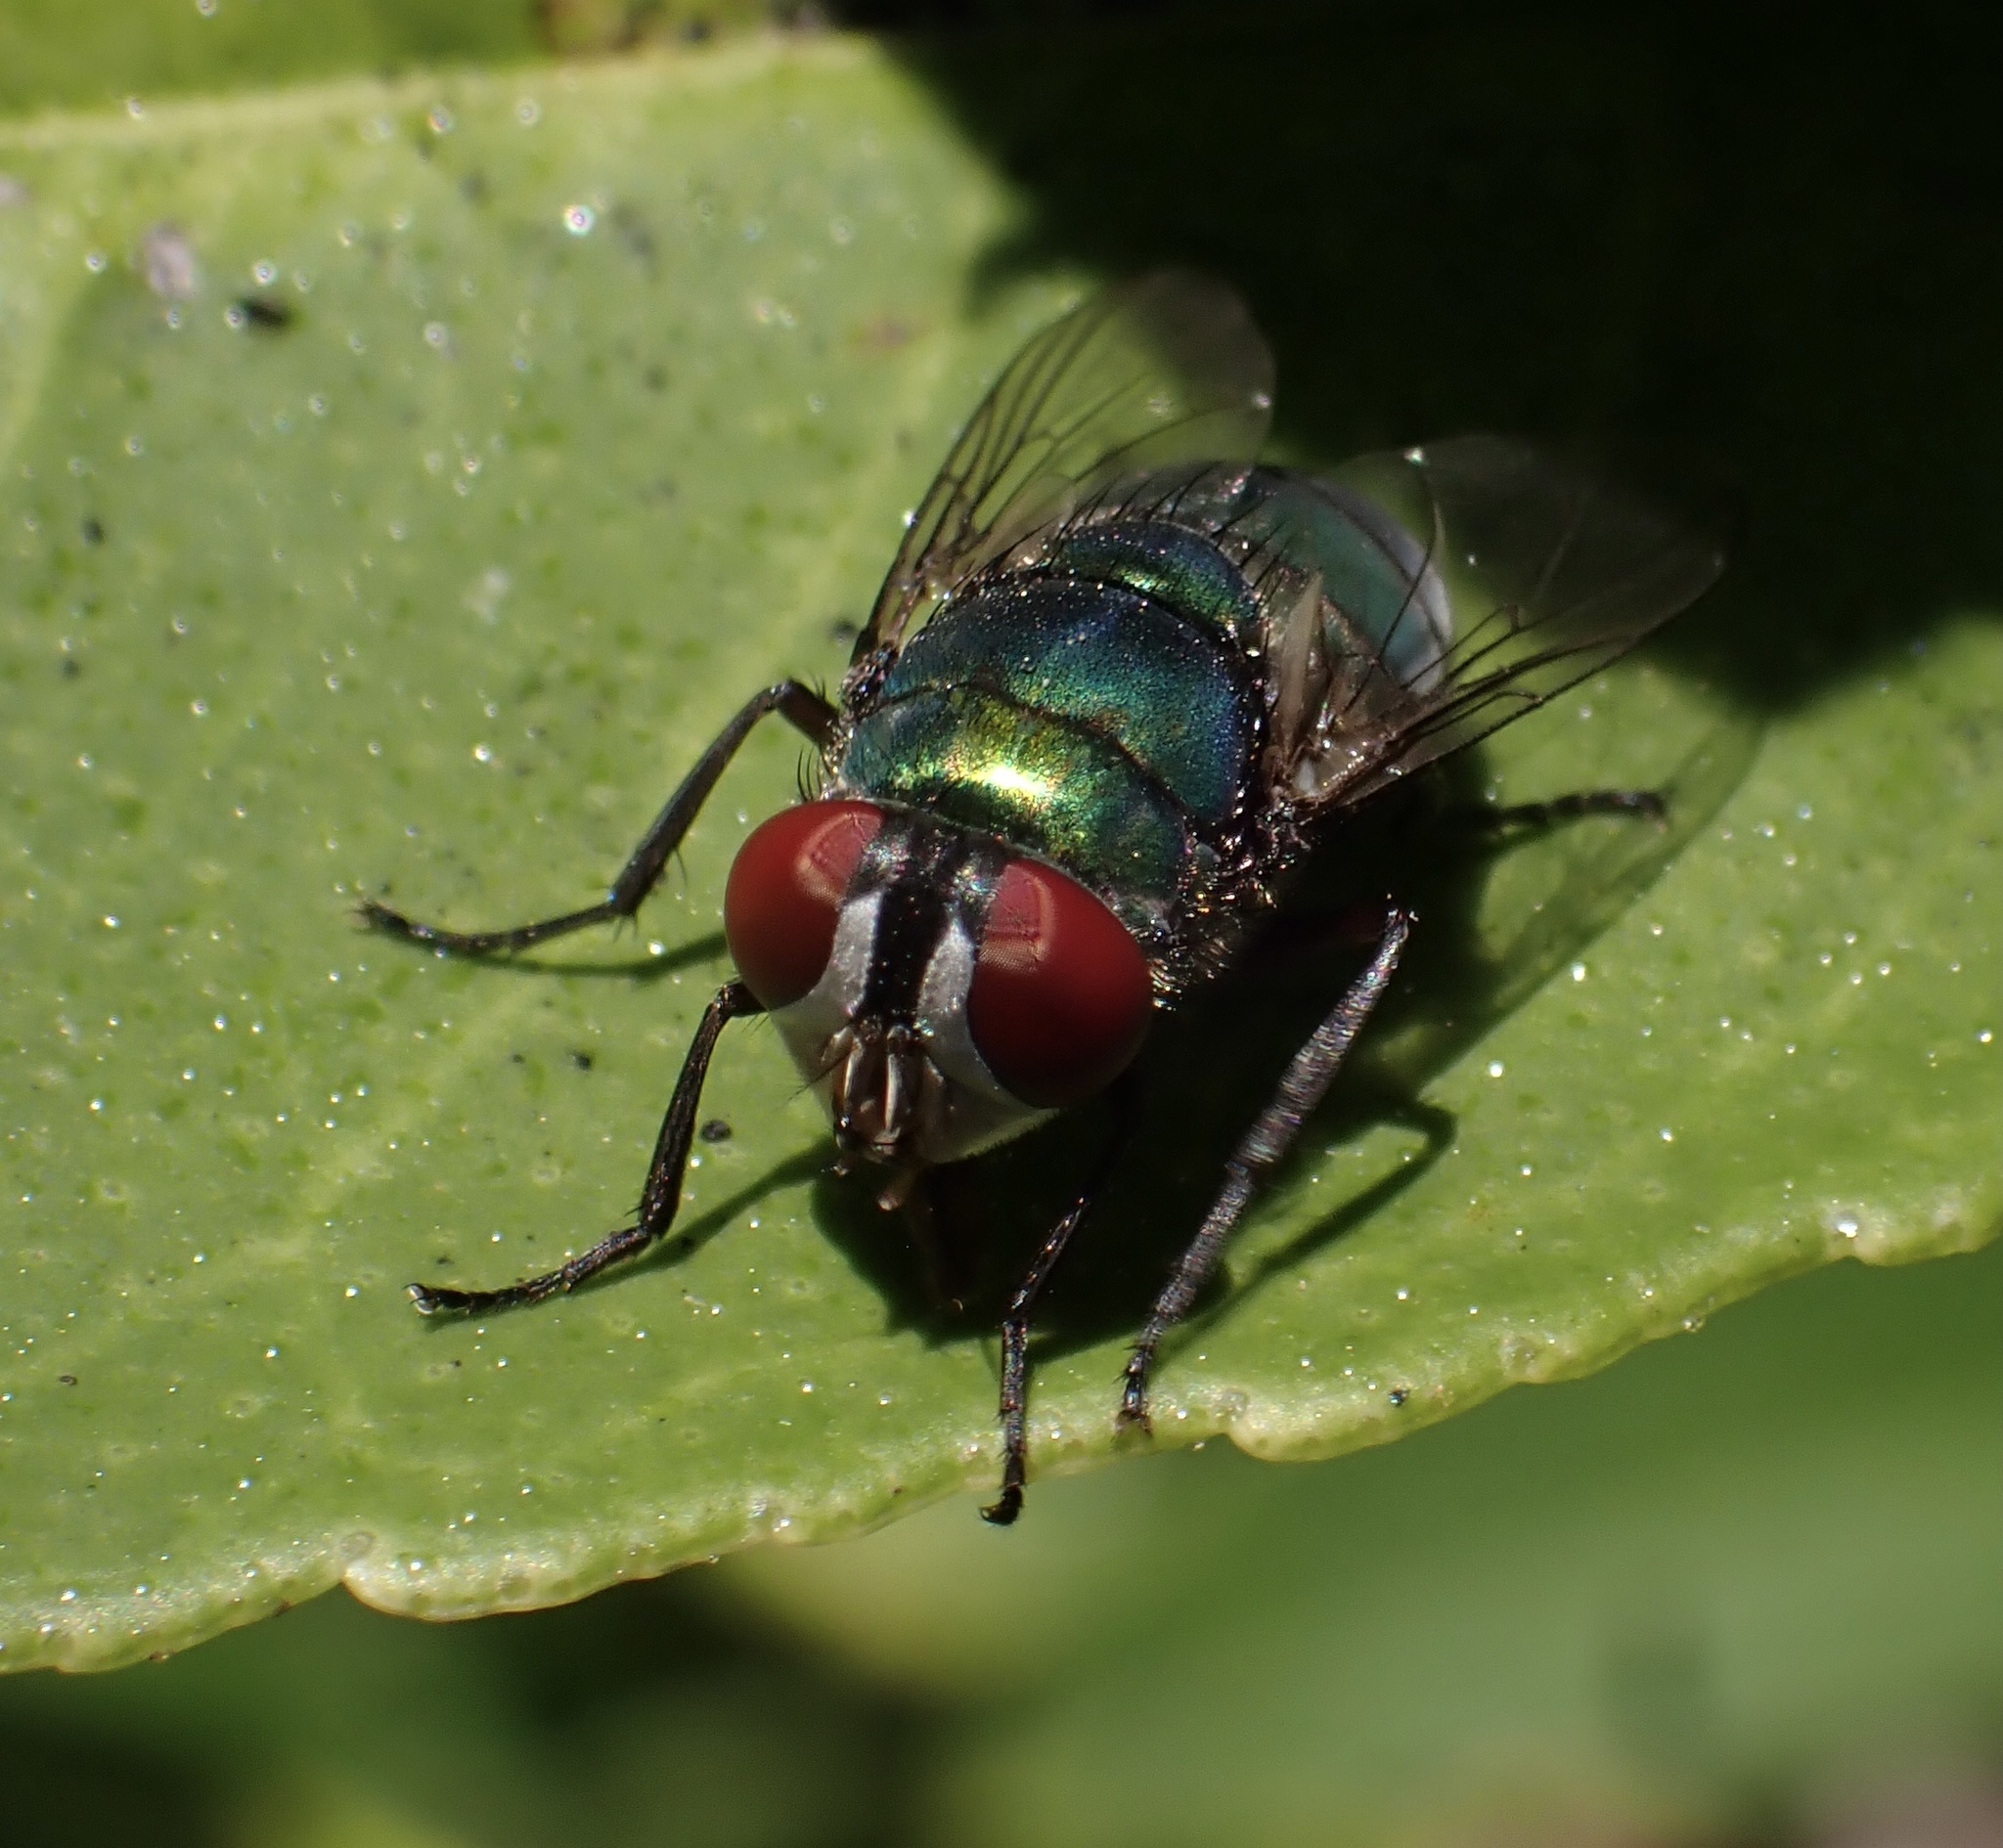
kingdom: Animalia
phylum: Arthropoda
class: Insecta
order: Diptera
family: Calliphoridae
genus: Chrysomya
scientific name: Chrysomya albiceps
